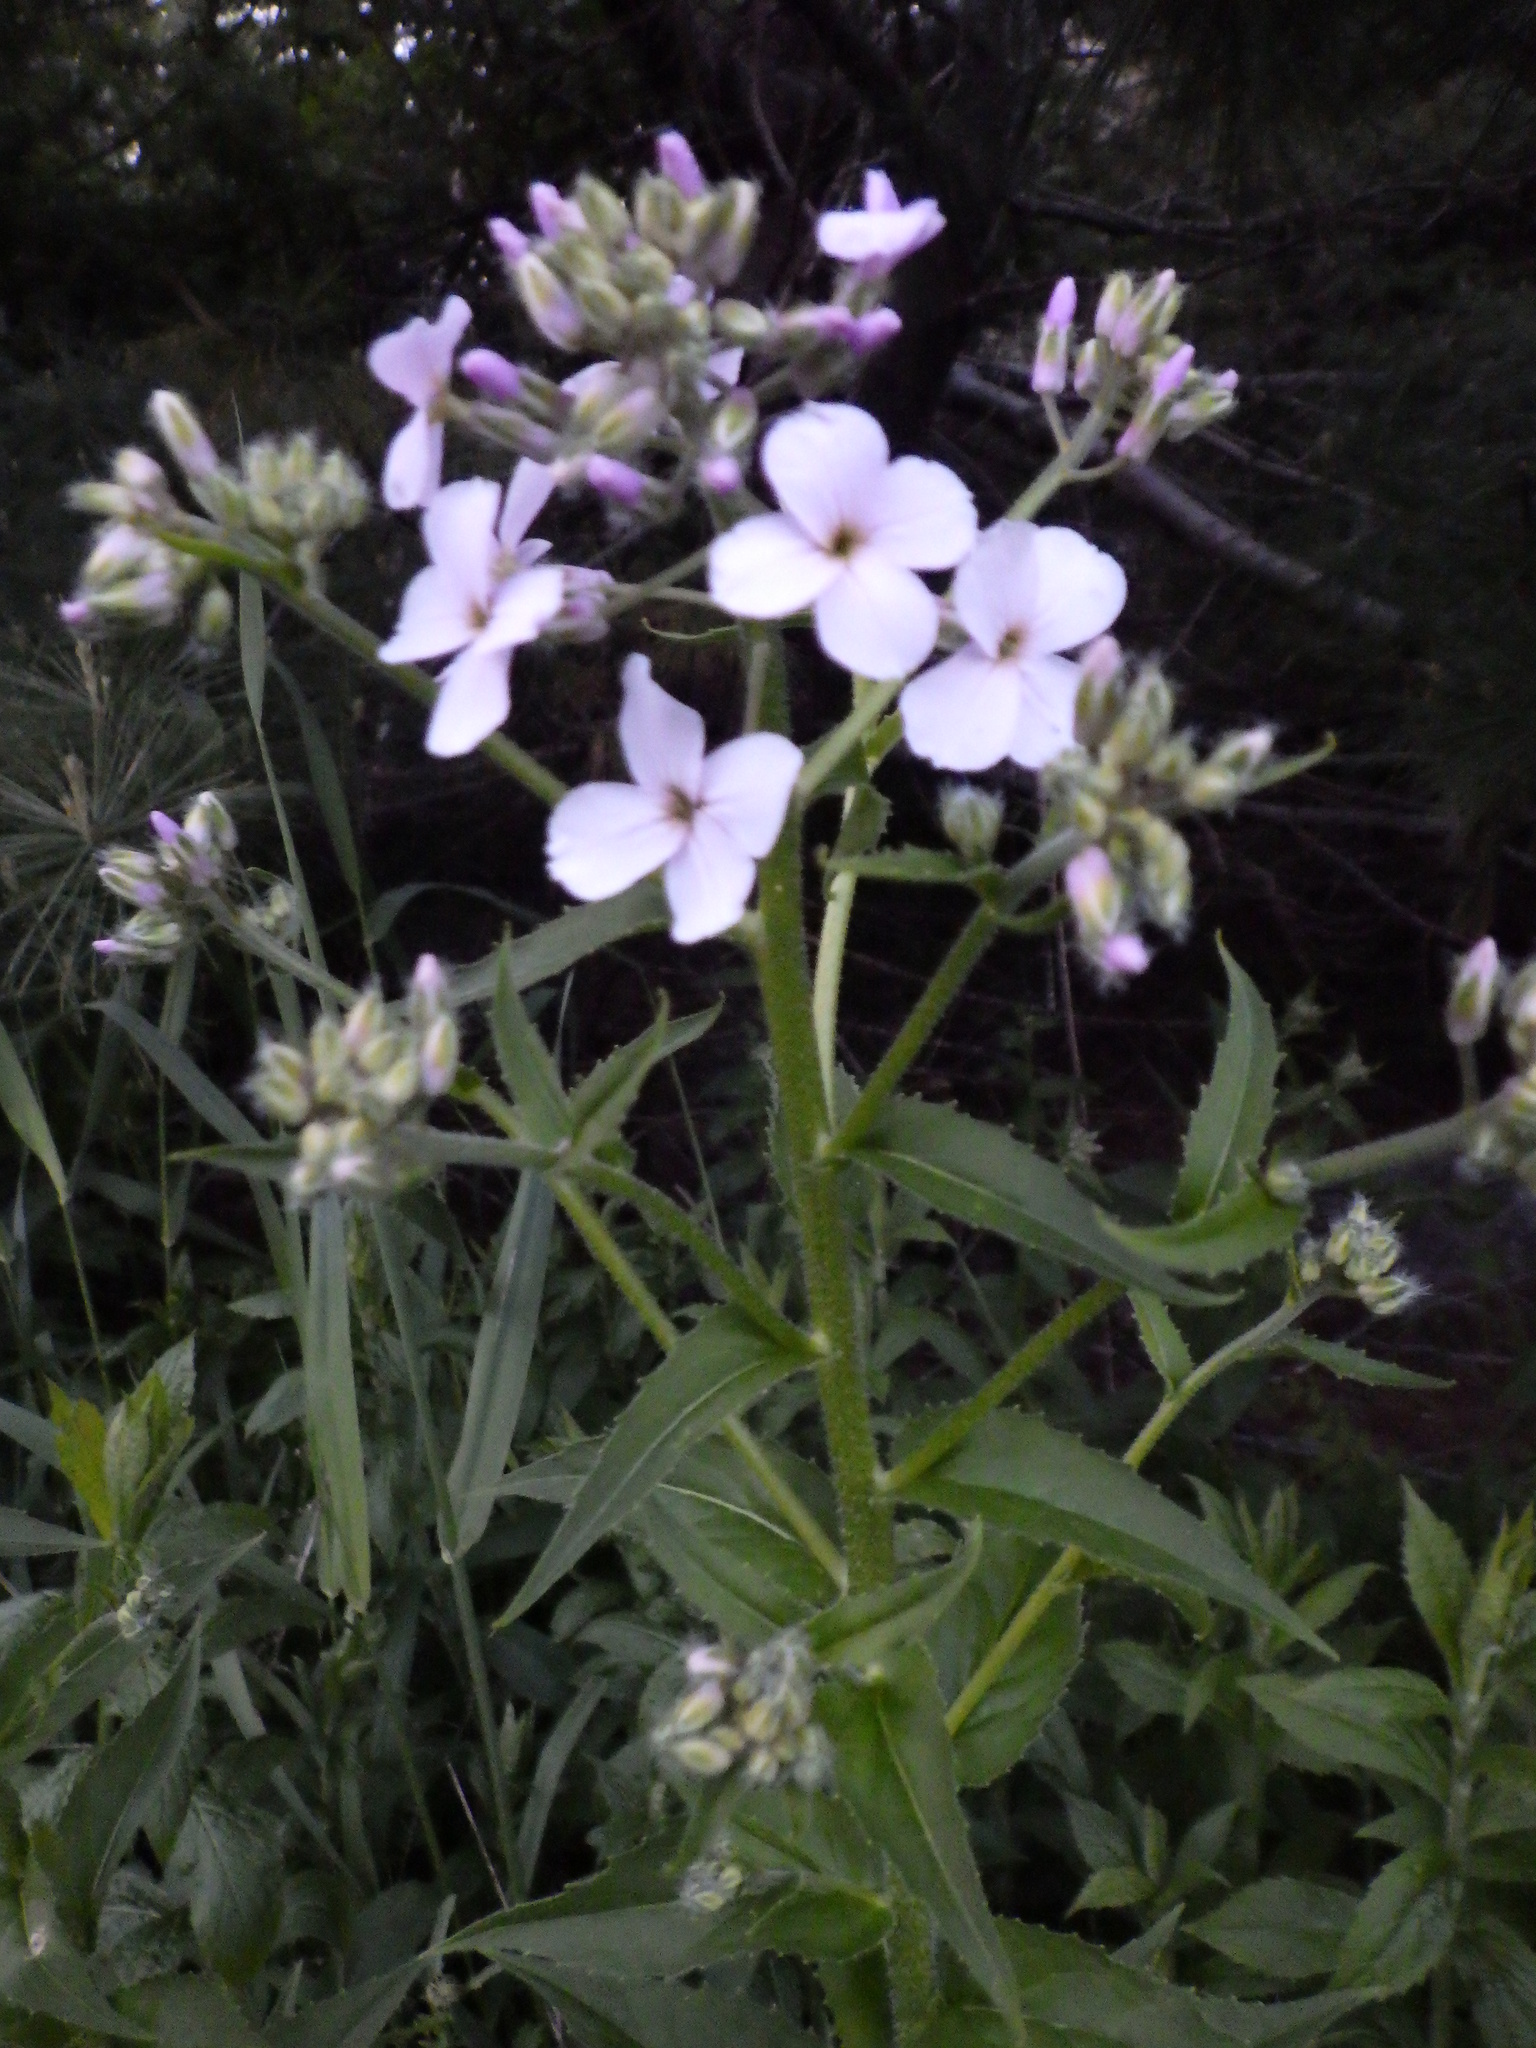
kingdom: Plantae
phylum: Tracheophyta
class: Magnoliopsida
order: Brassicales
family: Brassicaceae
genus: Hesperis
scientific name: Hesperis matronalis
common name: Dame's-violet
